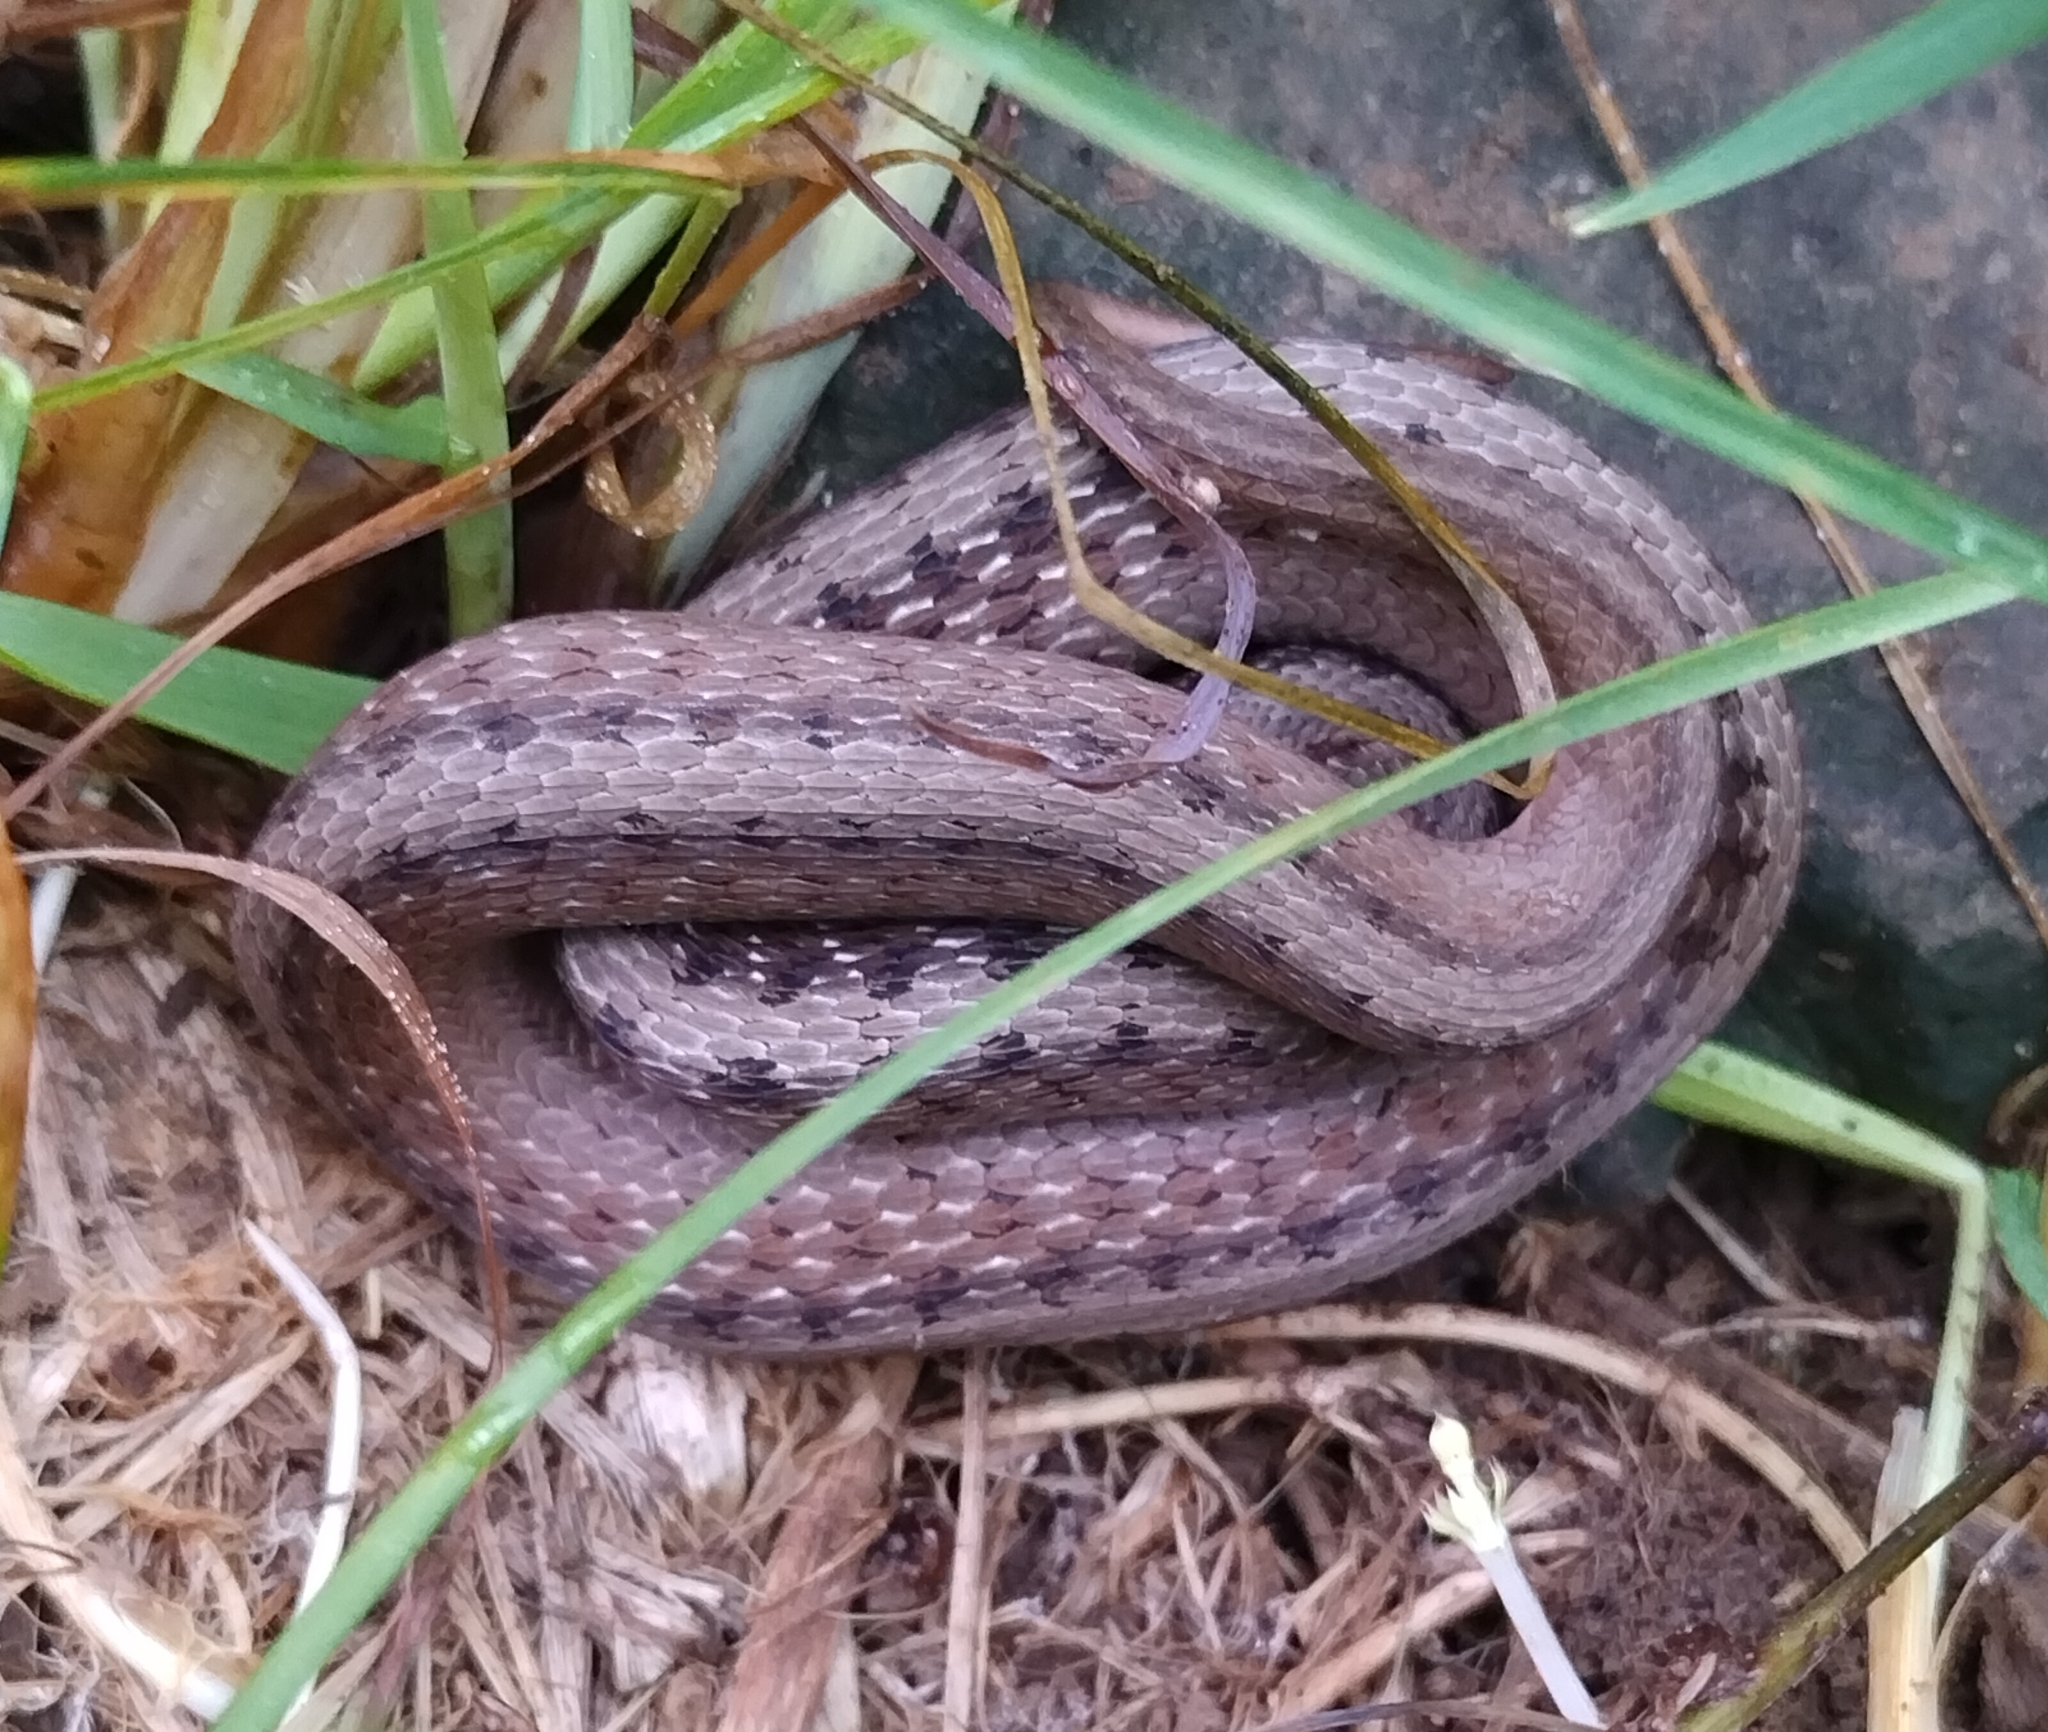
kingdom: Animalia
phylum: Chordata
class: Squamata
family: Colubridae
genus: Storeria
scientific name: Storeria dekayi
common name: (dekay’s) brown snake
